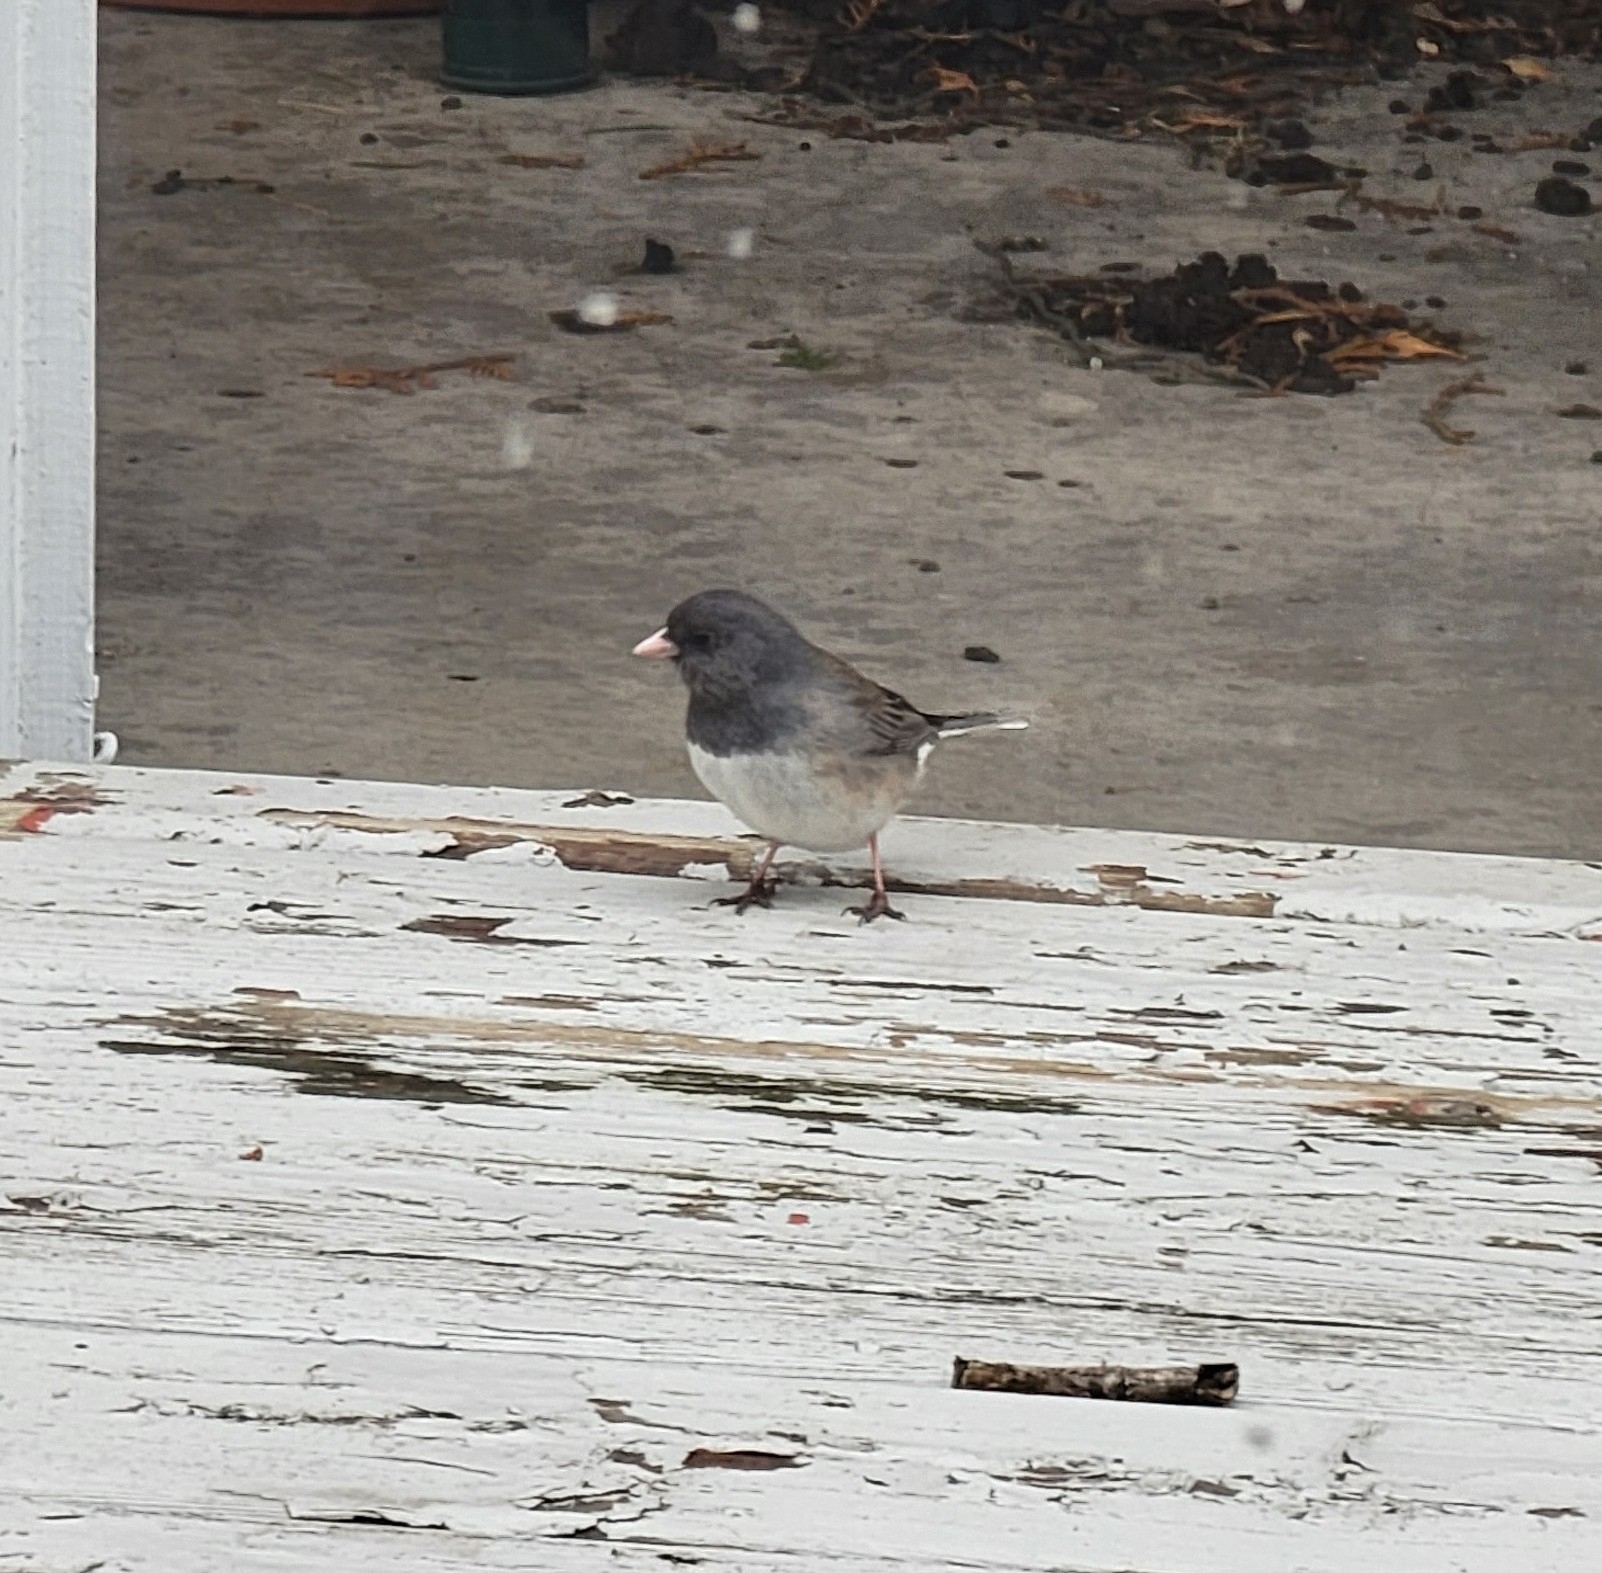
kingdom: Animalia
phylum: Chordata
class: Aves
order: Passeriformes
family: Passerellidae
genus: Junco
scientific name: Junco hyemalis
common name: Dark-eyed junco
